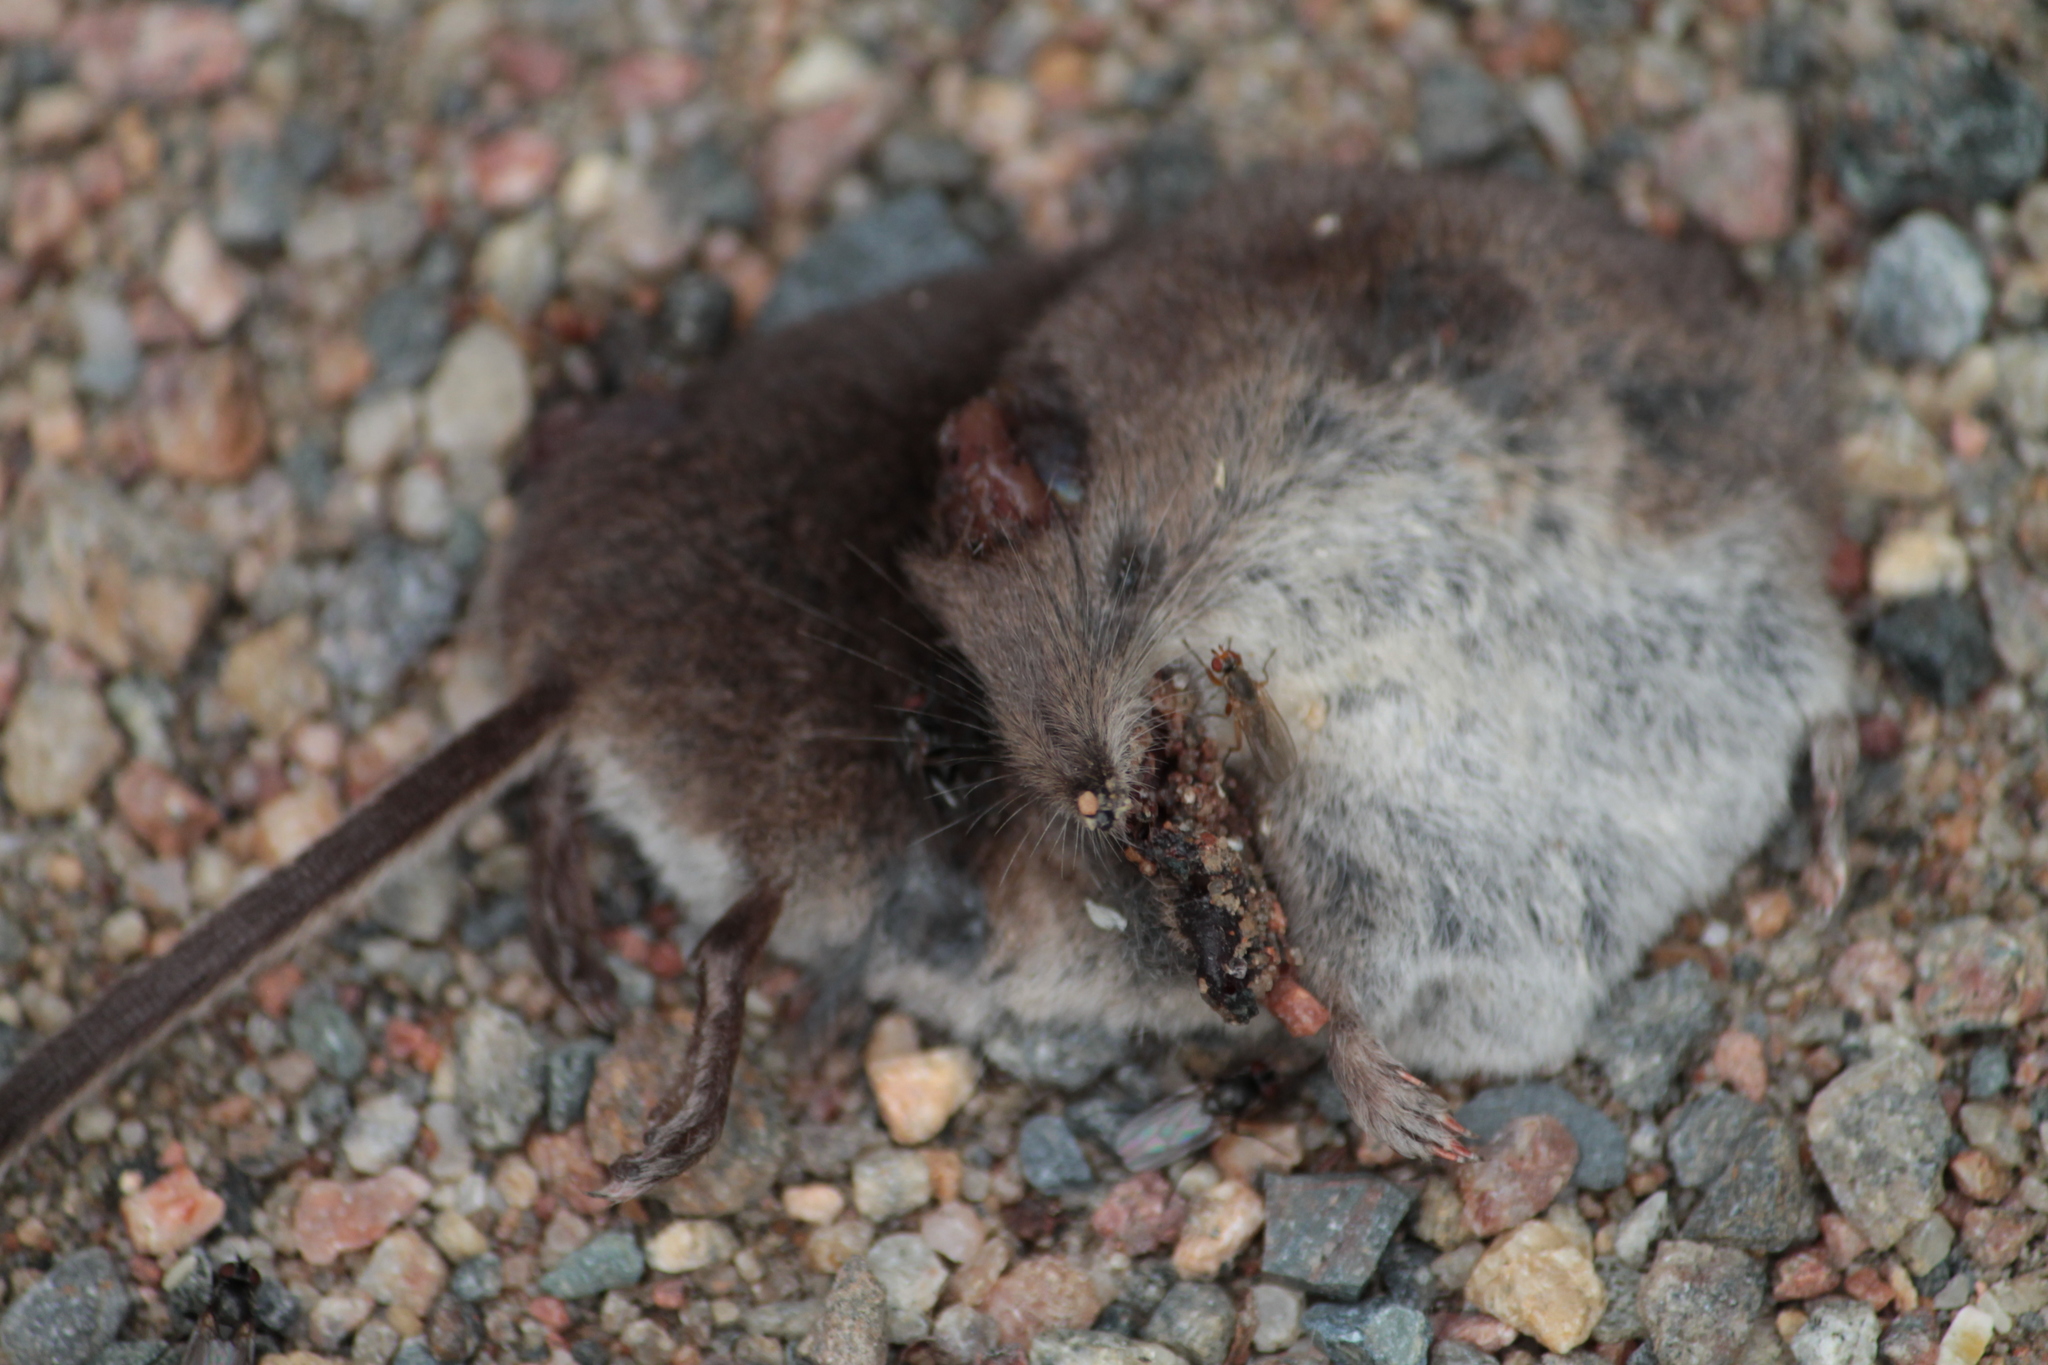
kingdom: Animalia
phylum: Chordata
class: Mammalia
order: Soricomorpha
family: Soricidae
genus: Sorex
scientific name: Sorex araneus
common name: Common shrew
